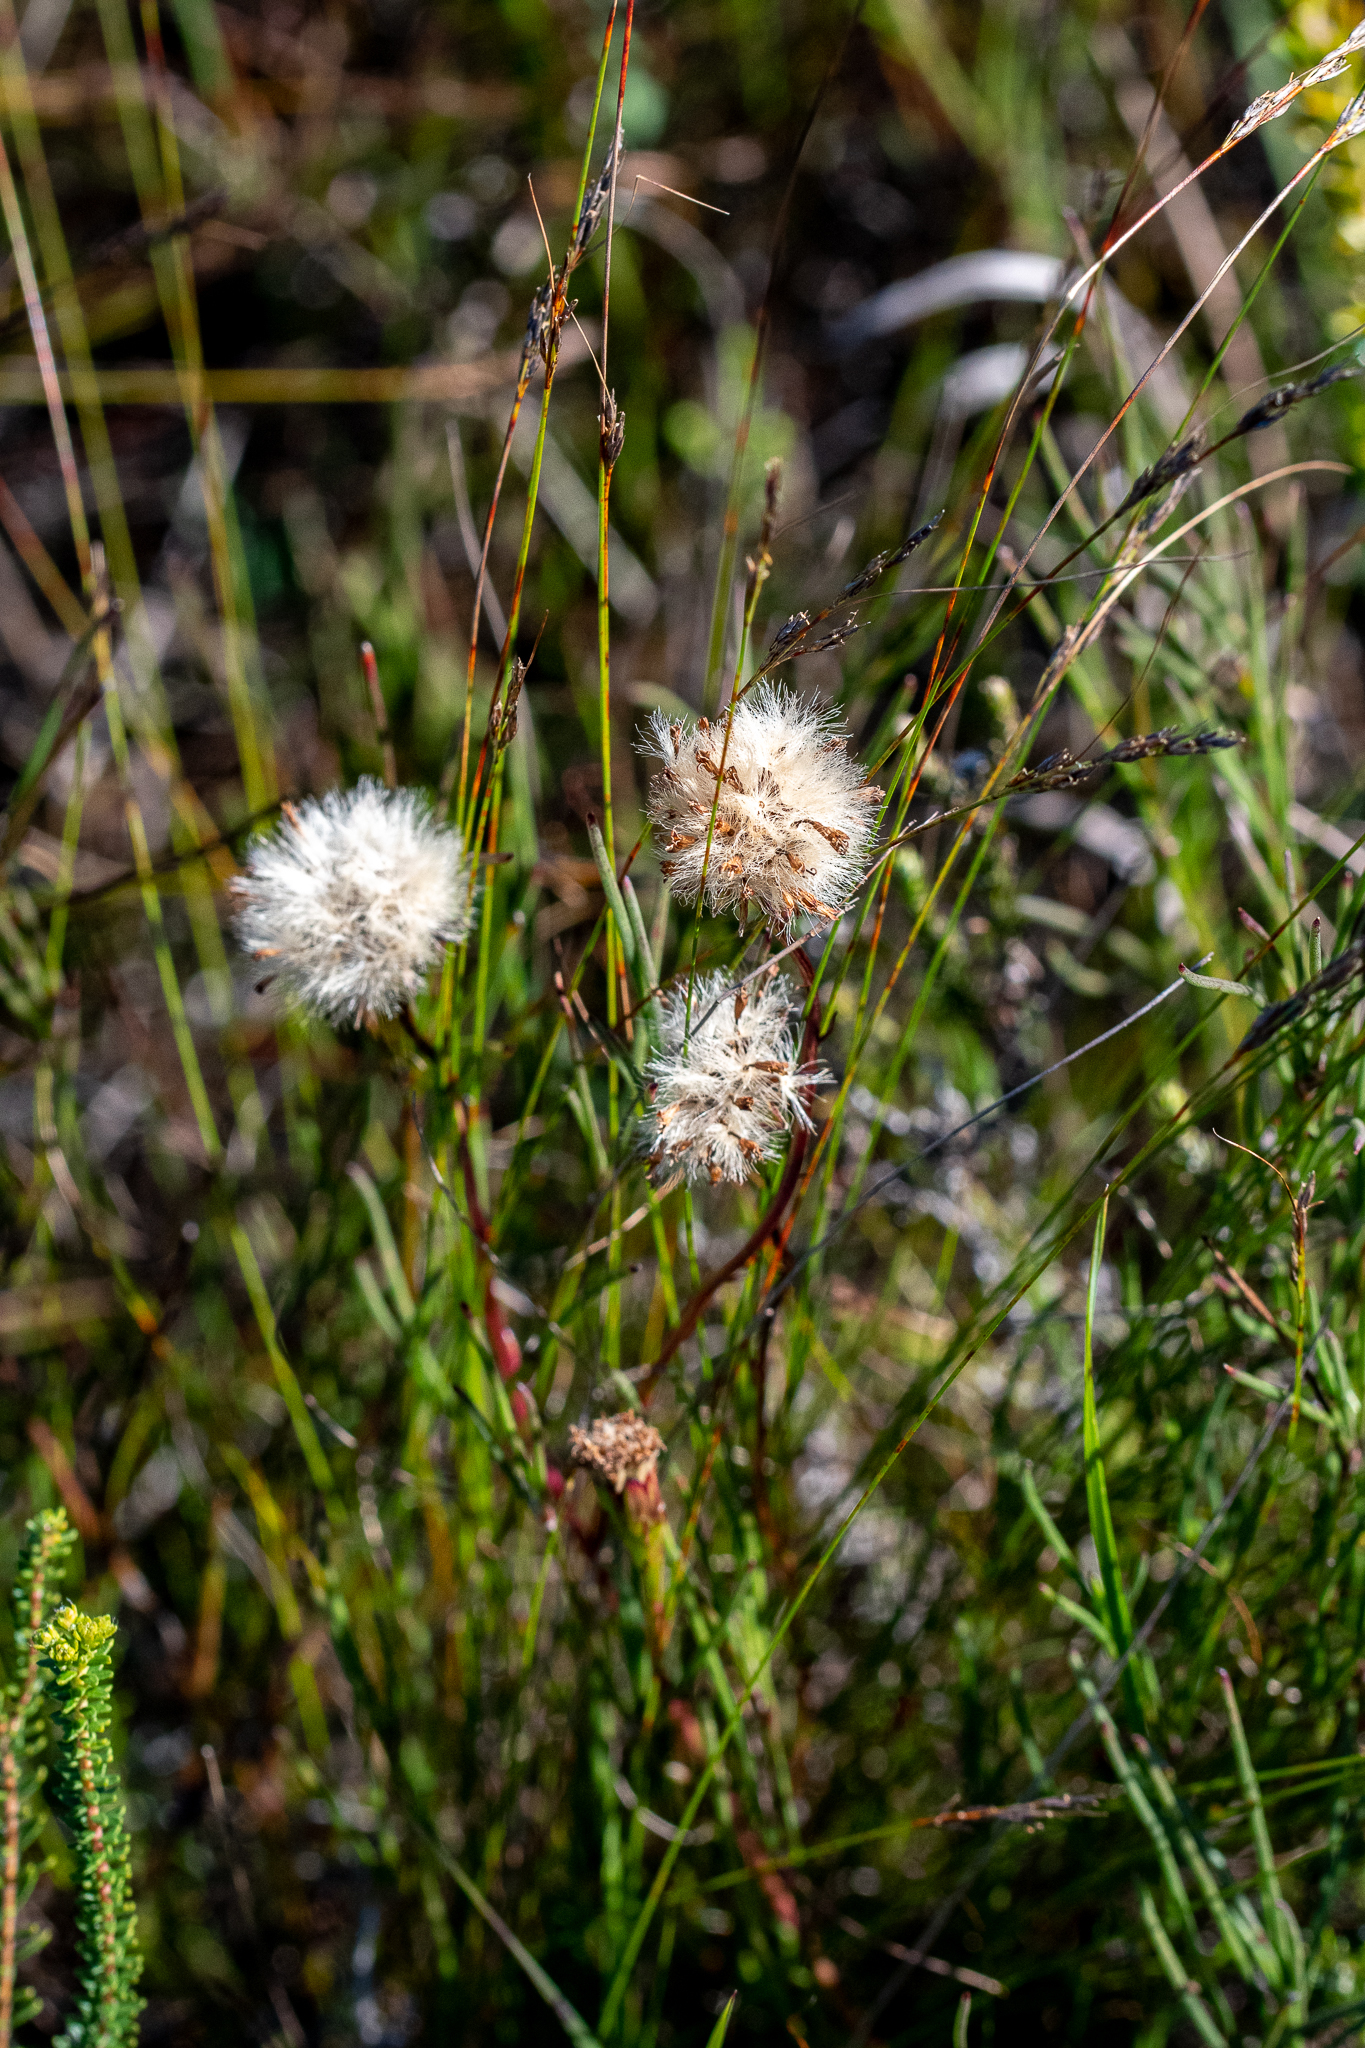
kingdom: Plantae
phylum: Tracheophyta
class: Magnoliopsida
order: Asterales
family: Asteraceae
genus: Senecio
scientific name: Senecio triqueter
